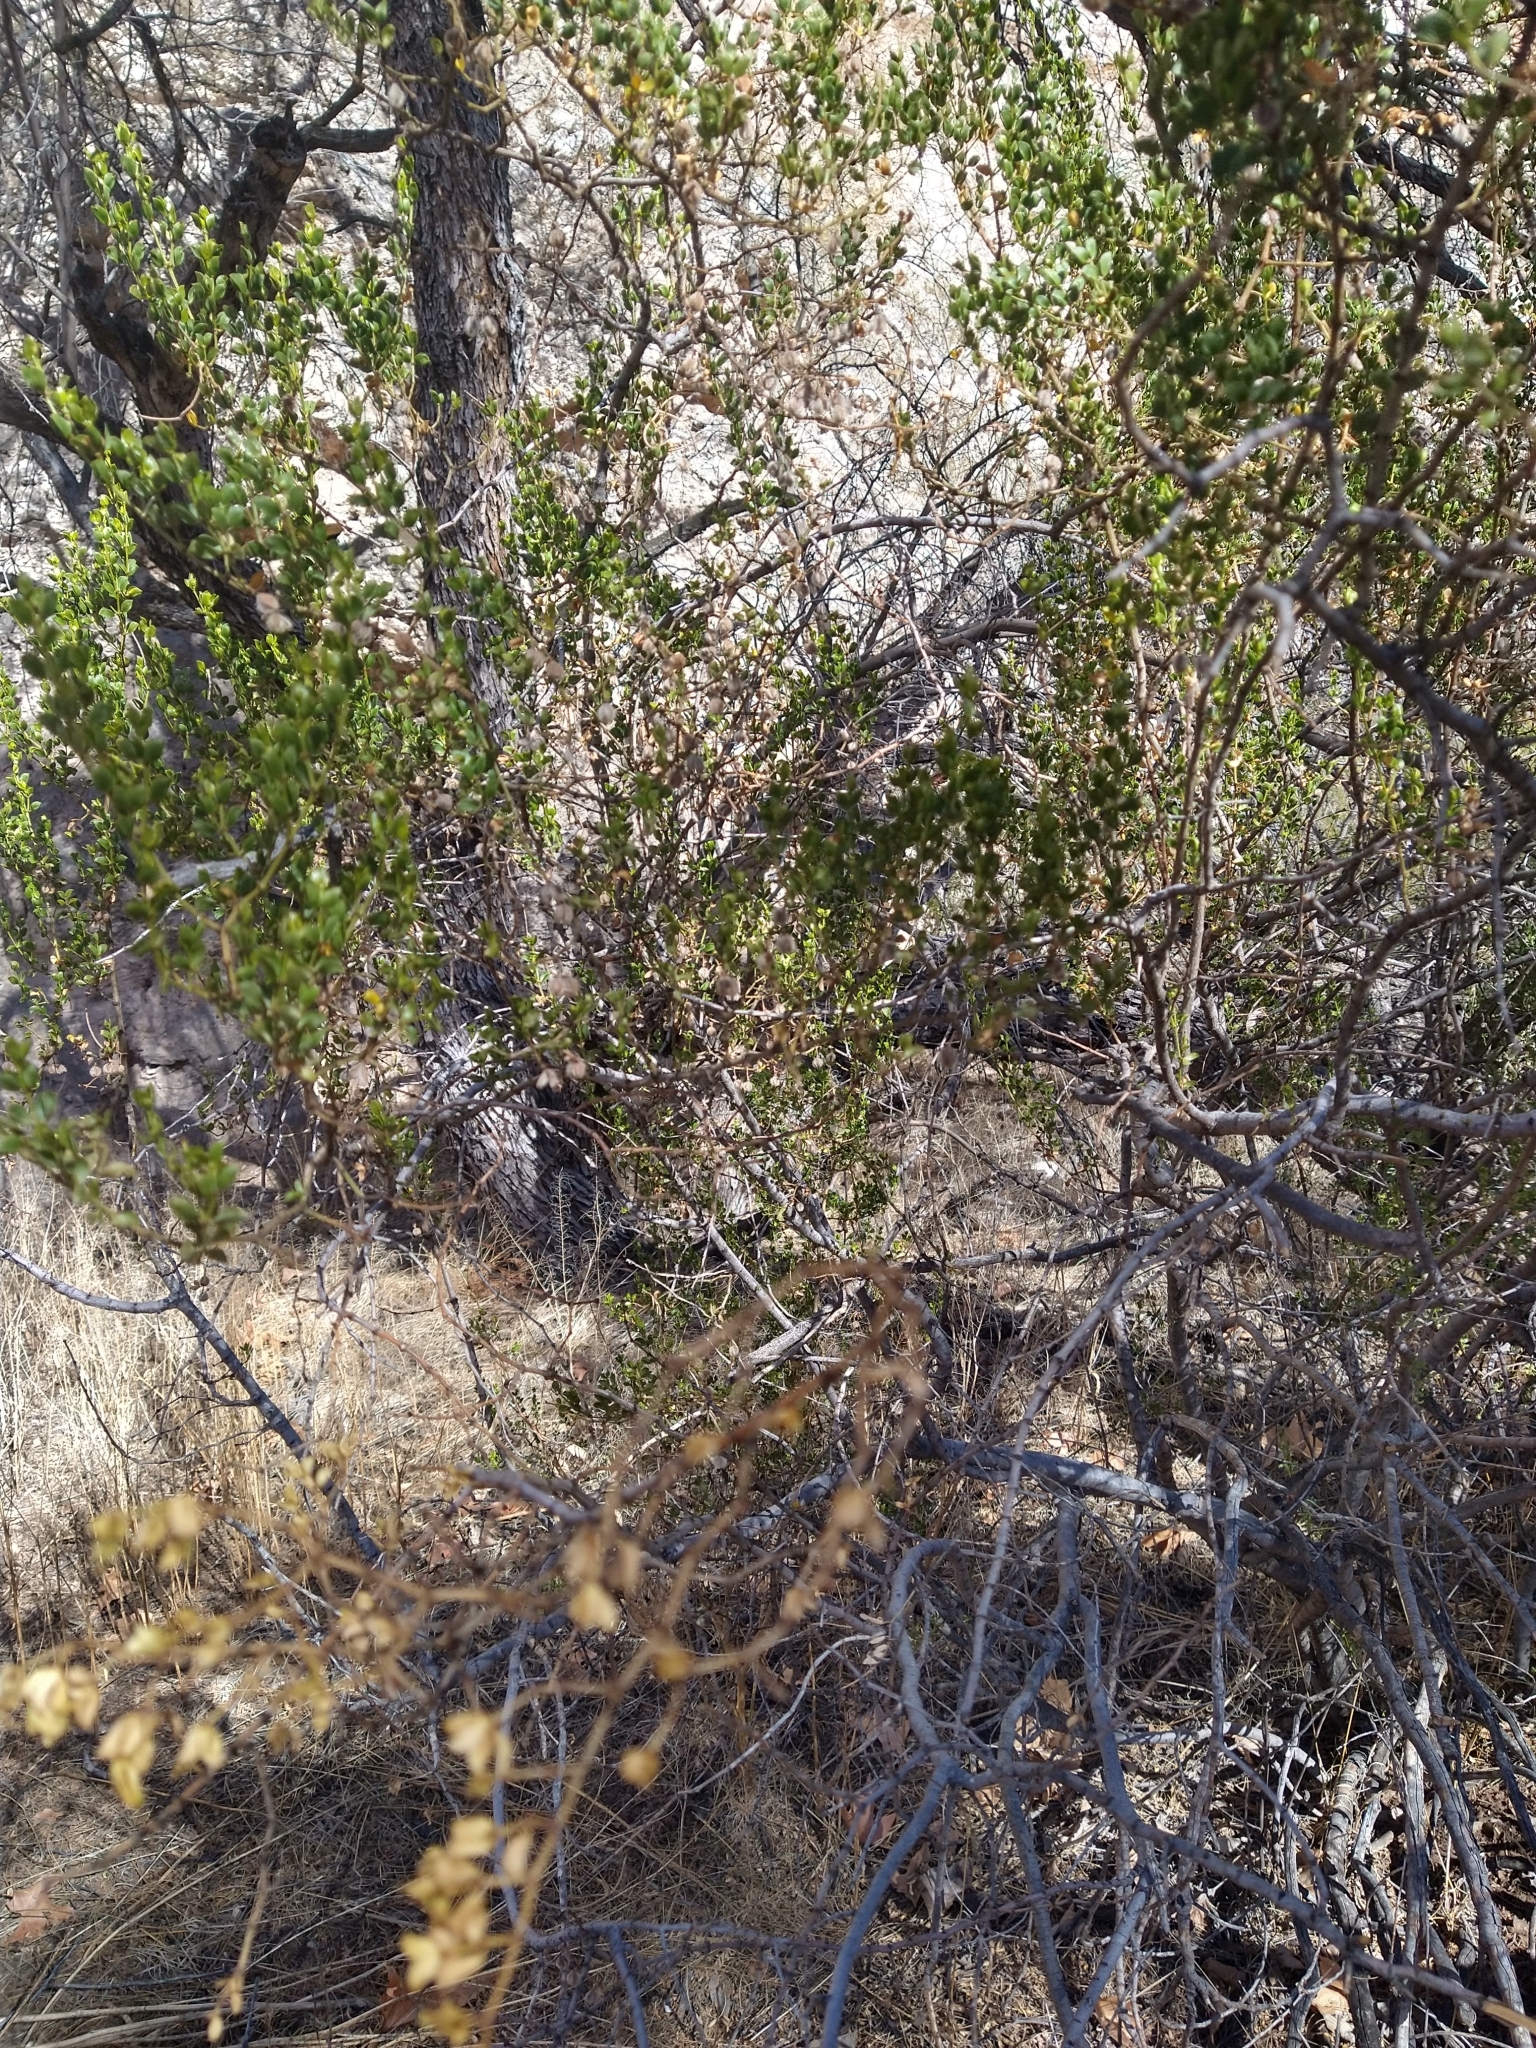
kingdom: Plantae
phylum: Tracheophyta
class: Magnoliopsida
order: Zygophyllales
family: Zygophyllaceae
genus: Larrea
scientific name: Larrea tridentata
